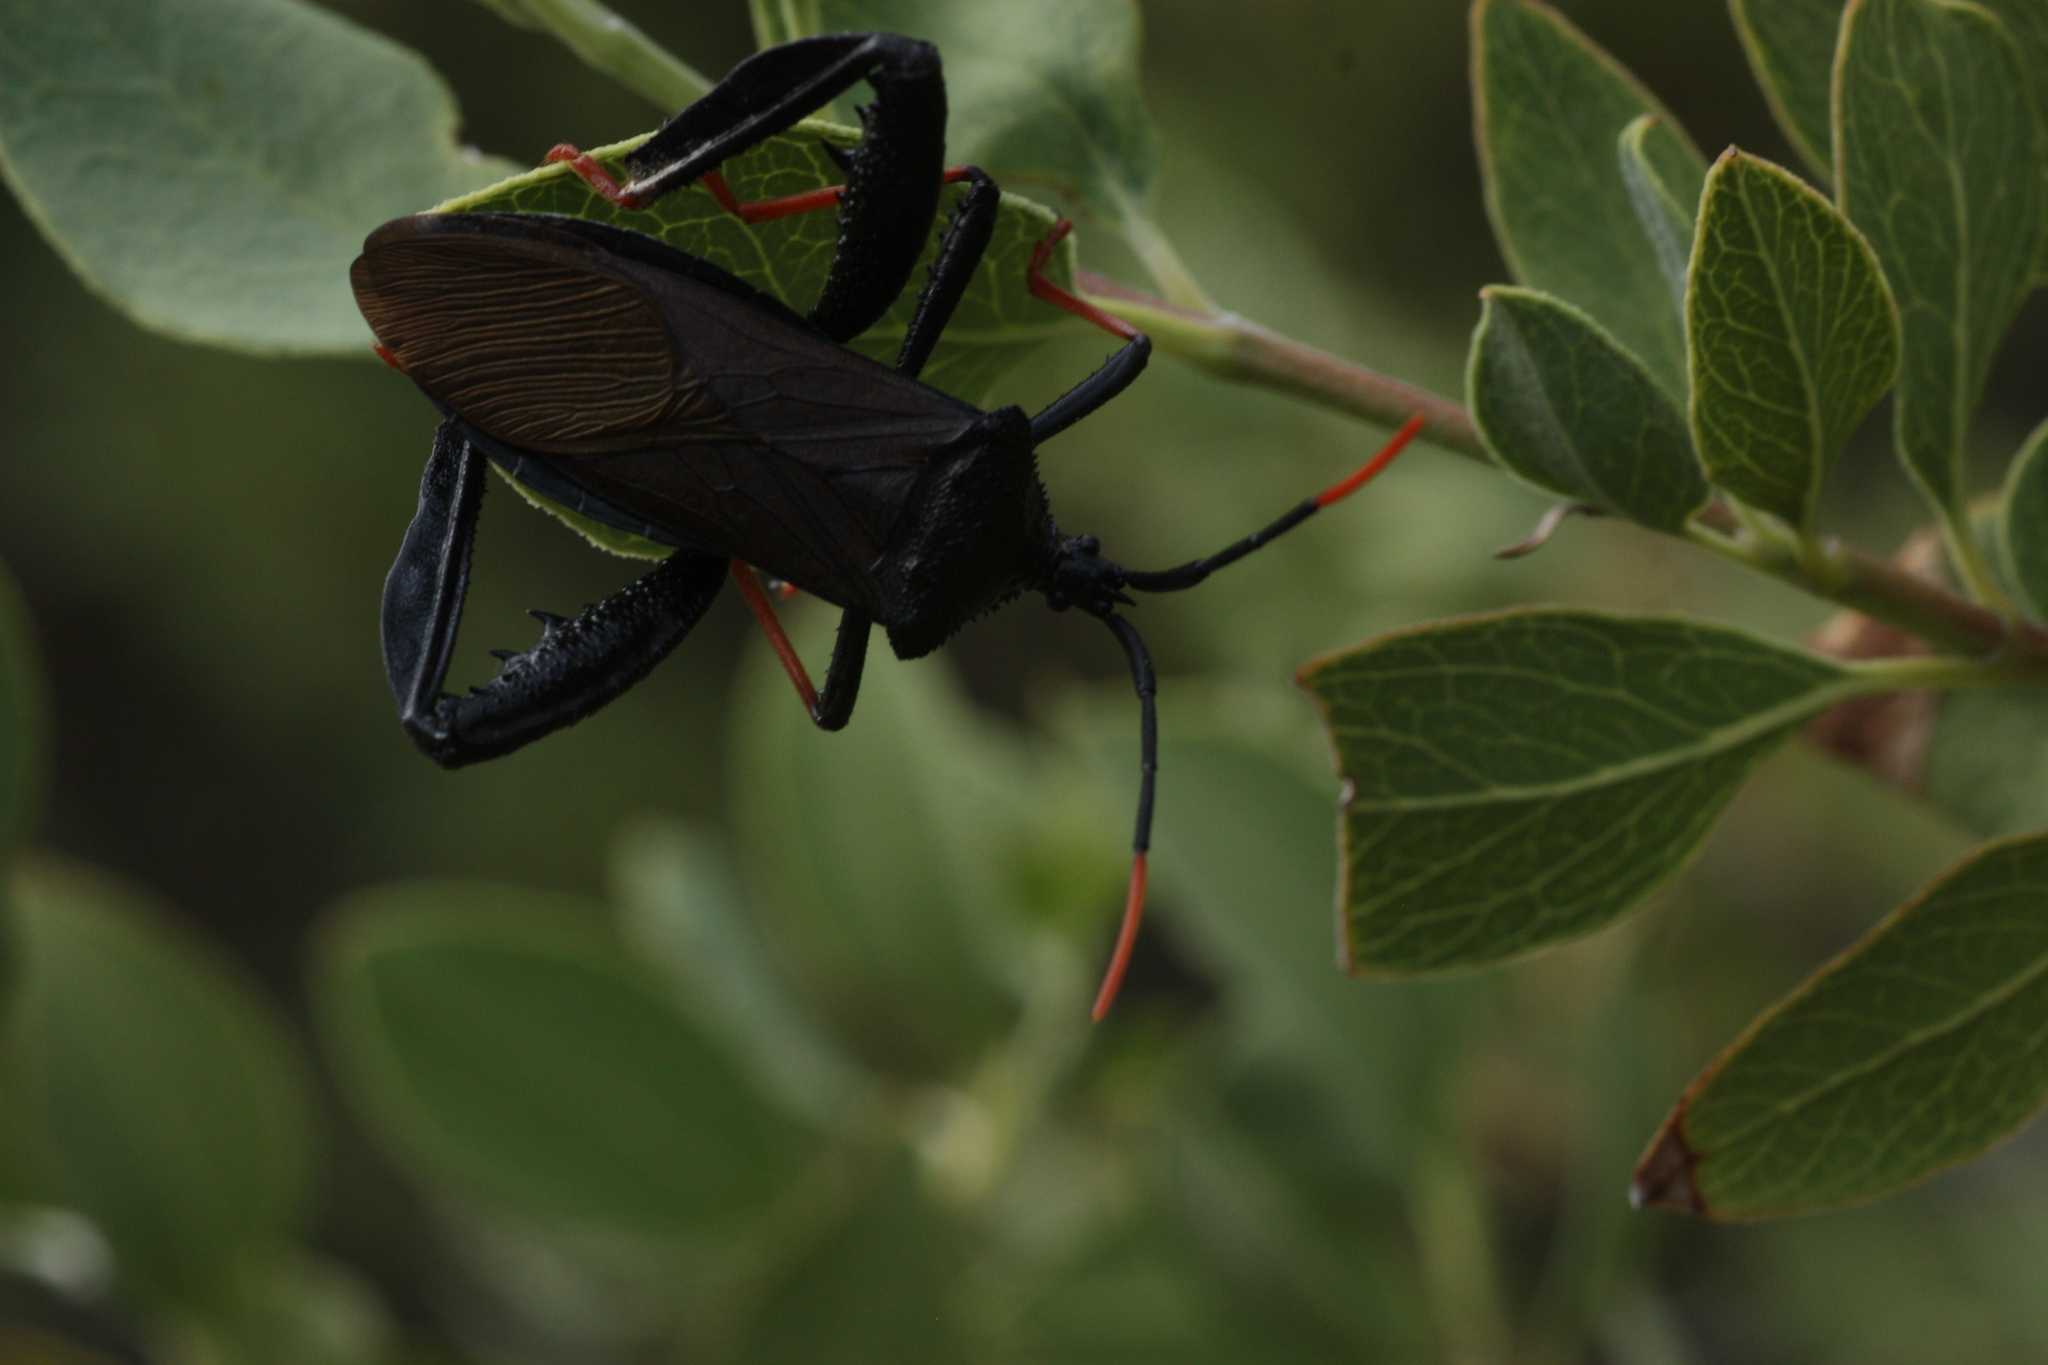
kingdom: Animalia
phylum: Arthropoda
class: Insecta
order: Hemiptera
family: Coreidae
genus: Acanthocephala
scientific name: Acanthocephala thomasi
